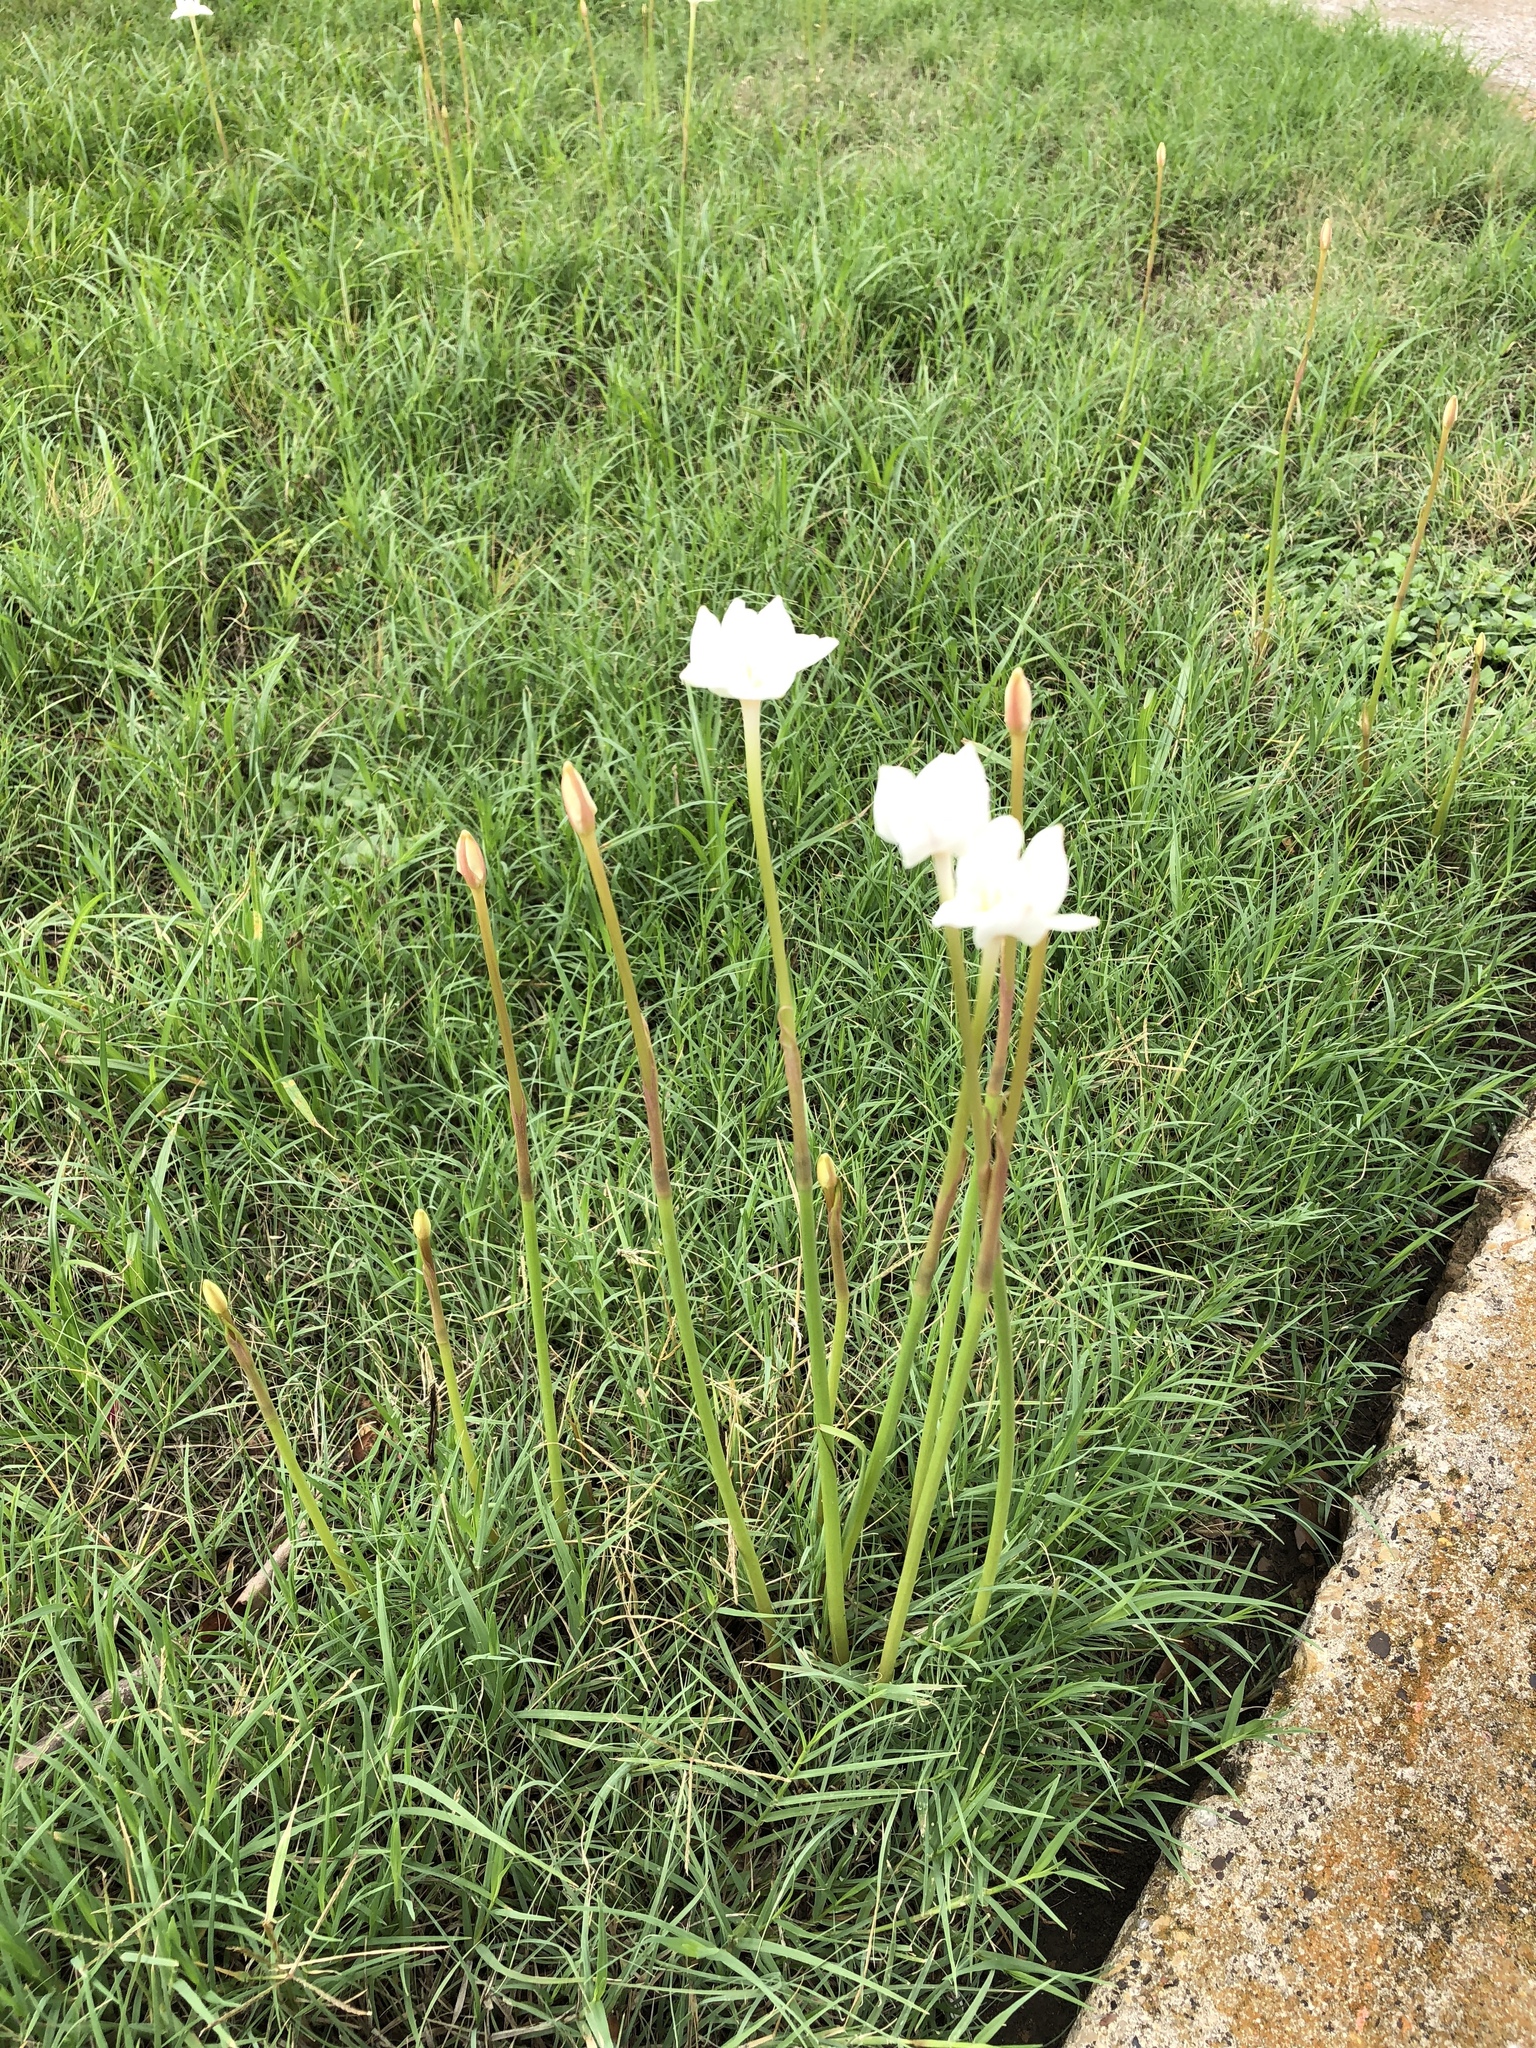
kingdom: Plantae
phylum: Tracheophyta
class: Liliopsida
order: Asparagales
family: Amaryllidaceae
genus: Zephyranthes
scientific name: Zephyranthes chlorosolen
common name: Evening rain-lily
